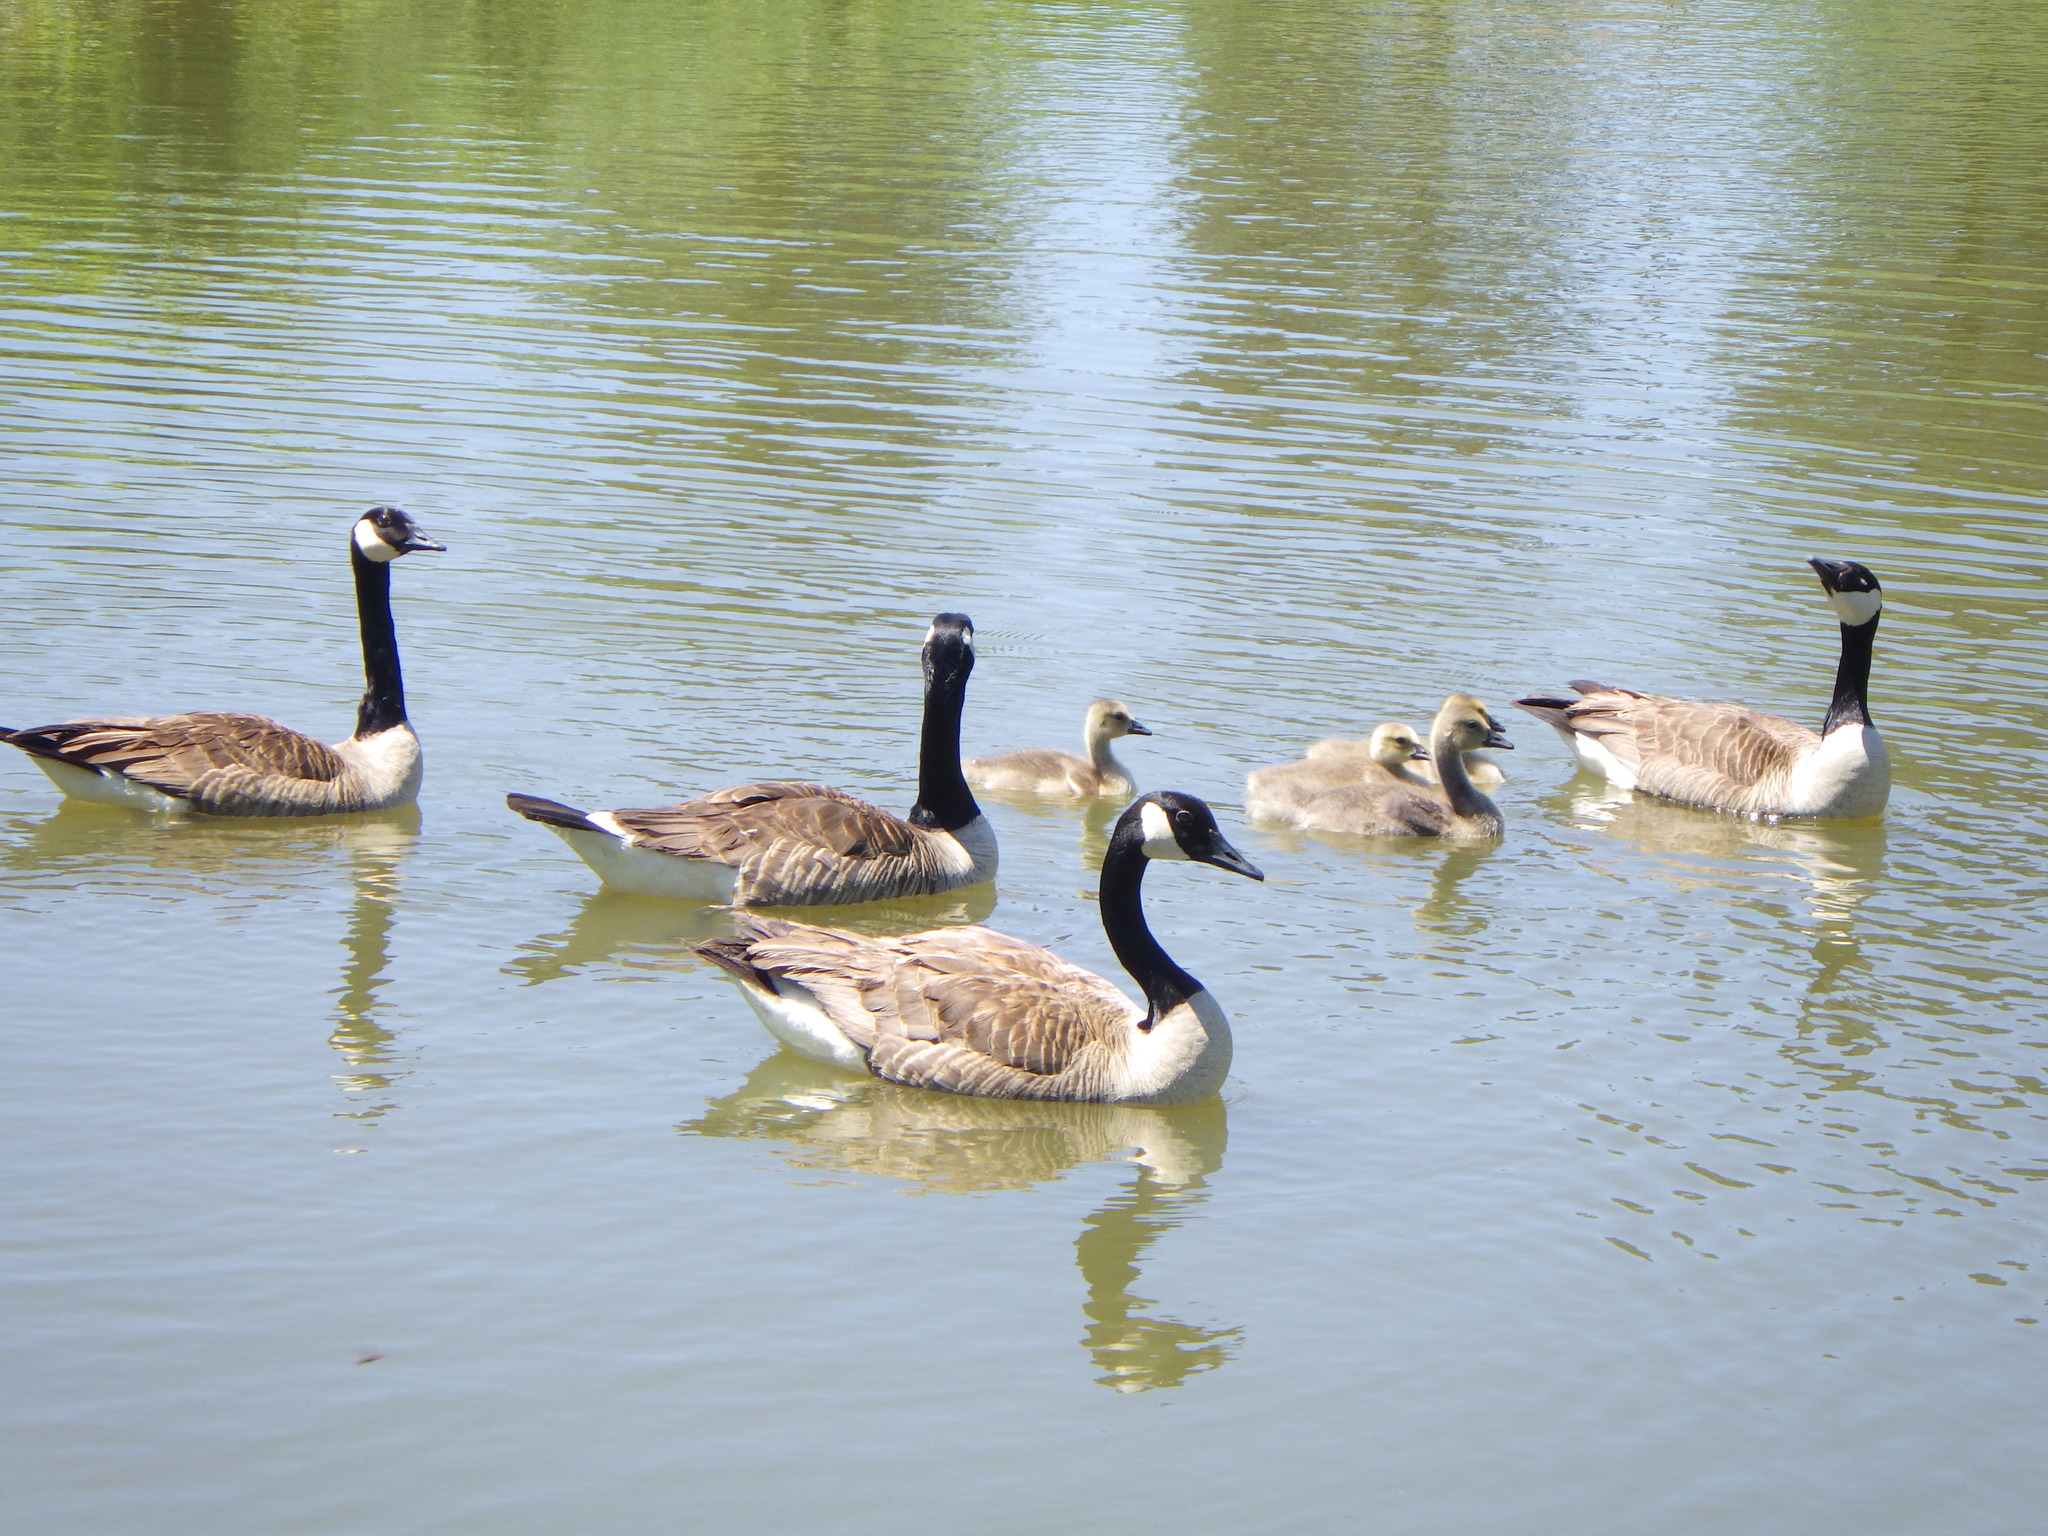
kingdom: Animalia
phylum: Chordata
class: Aves
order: Anseriformes
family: Anatidae
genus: Branta
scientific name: Branta canadensis
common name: Canada goose
